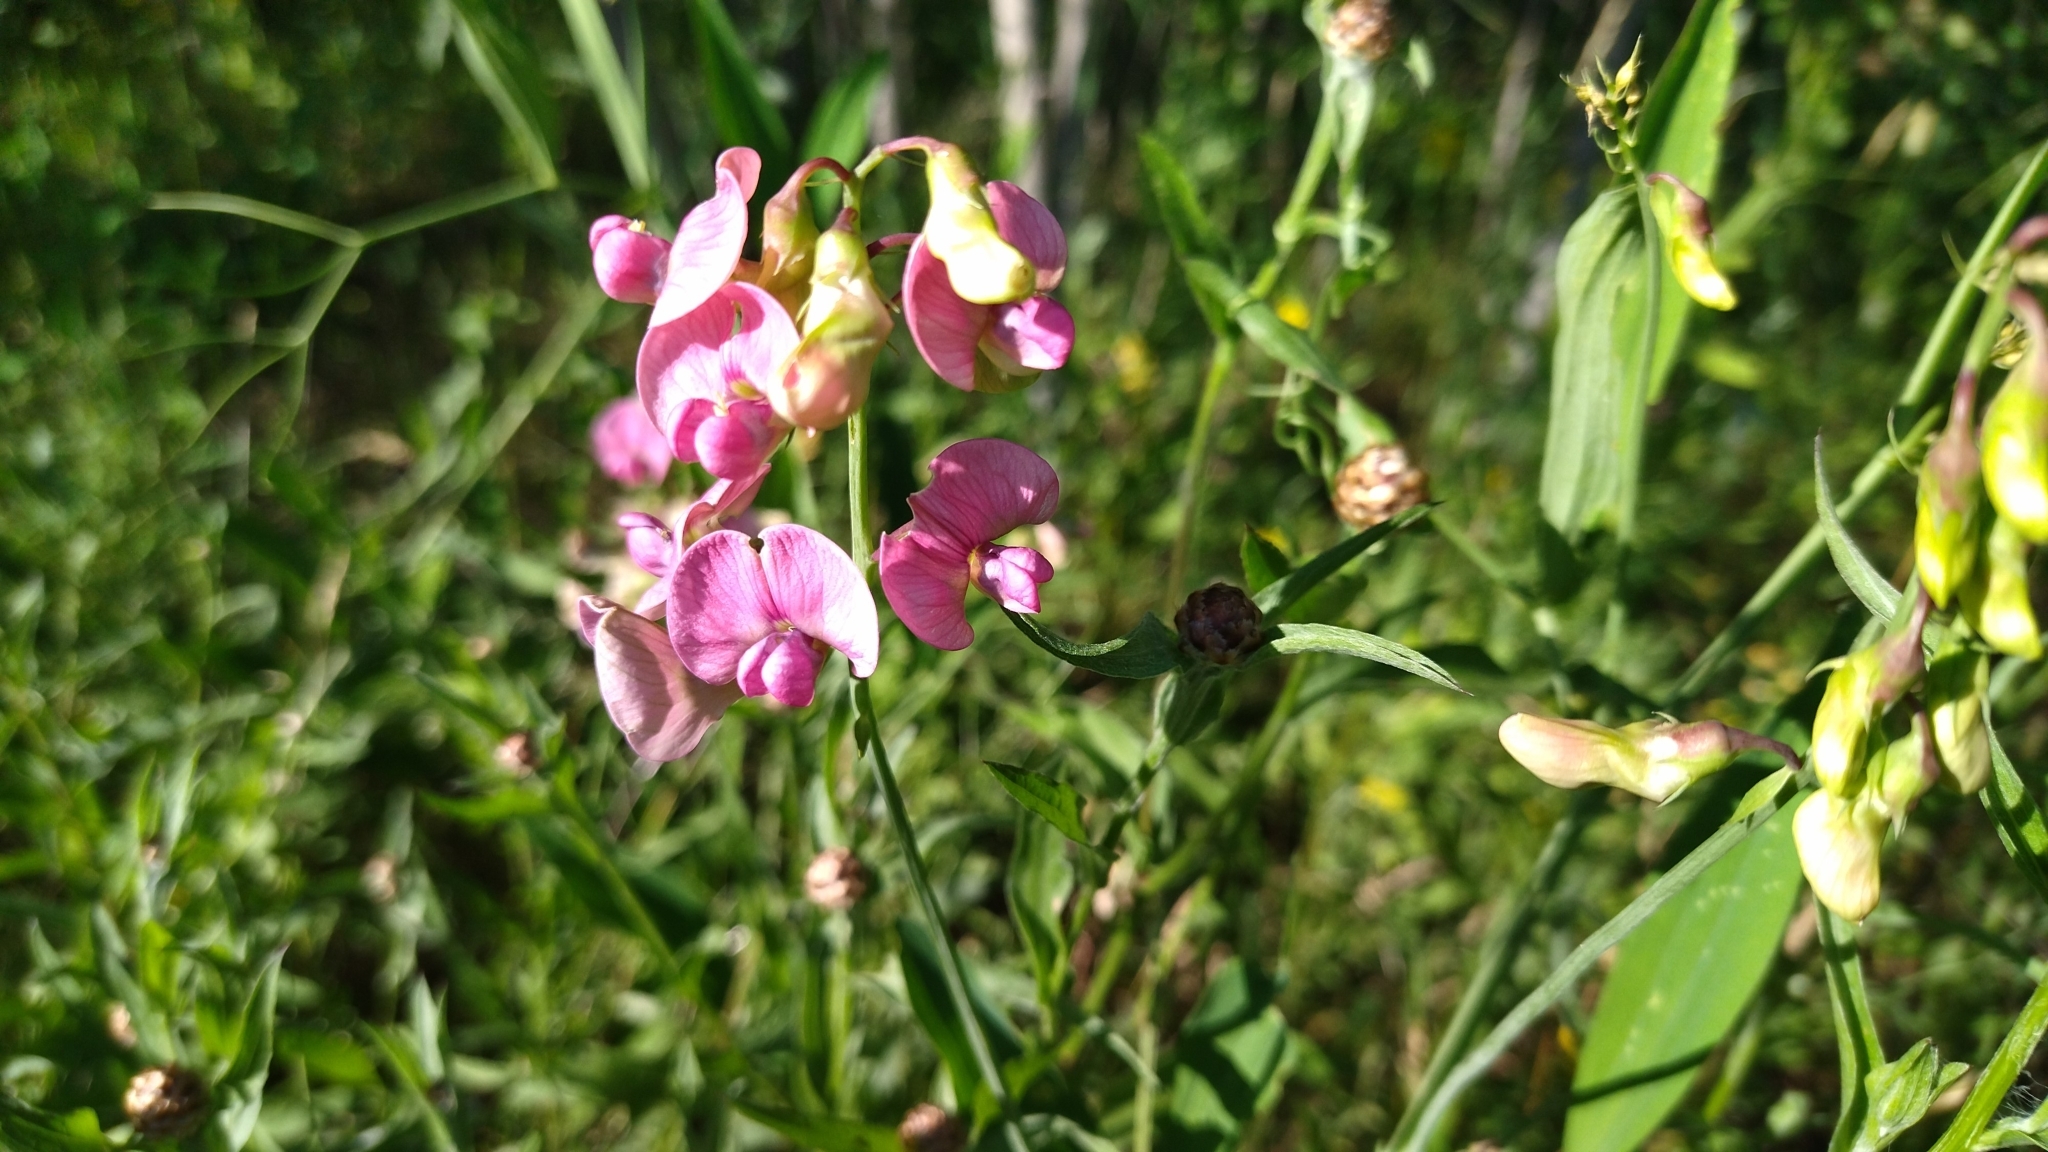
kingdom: Plantae
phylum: Tracheophyta
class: Magnoliopsida
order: Fabales
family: Fabaceae
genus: Lathyrus
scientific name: Lathyrus sylvestris
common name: Flat pea
